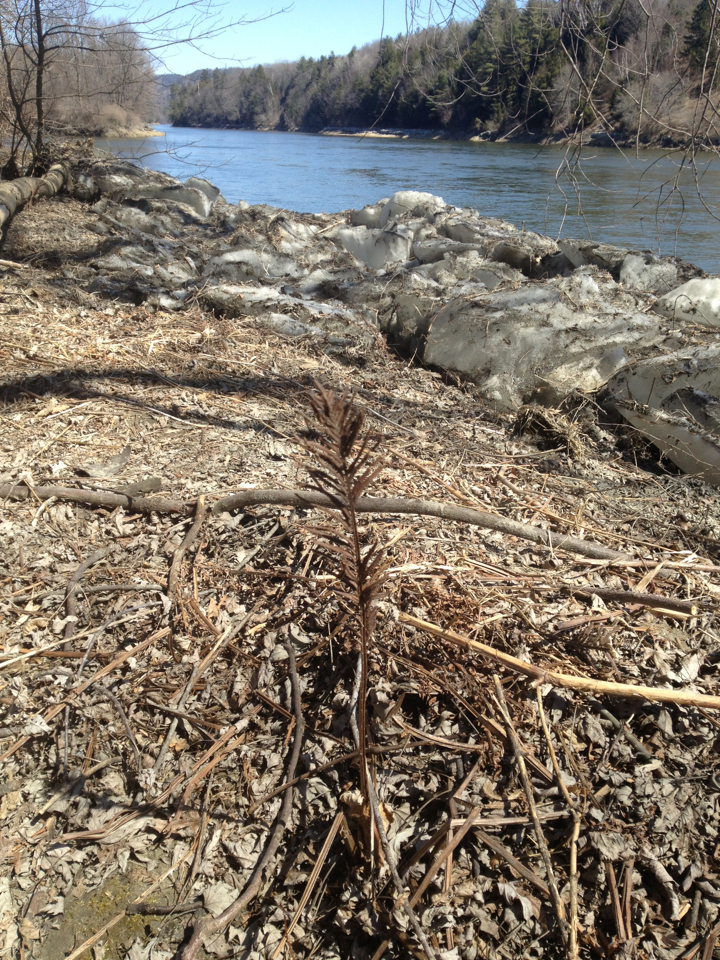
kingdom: Plantae
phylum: Tracheophyta
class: Polypodiopsida
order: Polypodiales
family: Onocleaceae
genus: Matteuccia
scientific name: Matteuccia struthiopteris
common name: Ostrich fern
